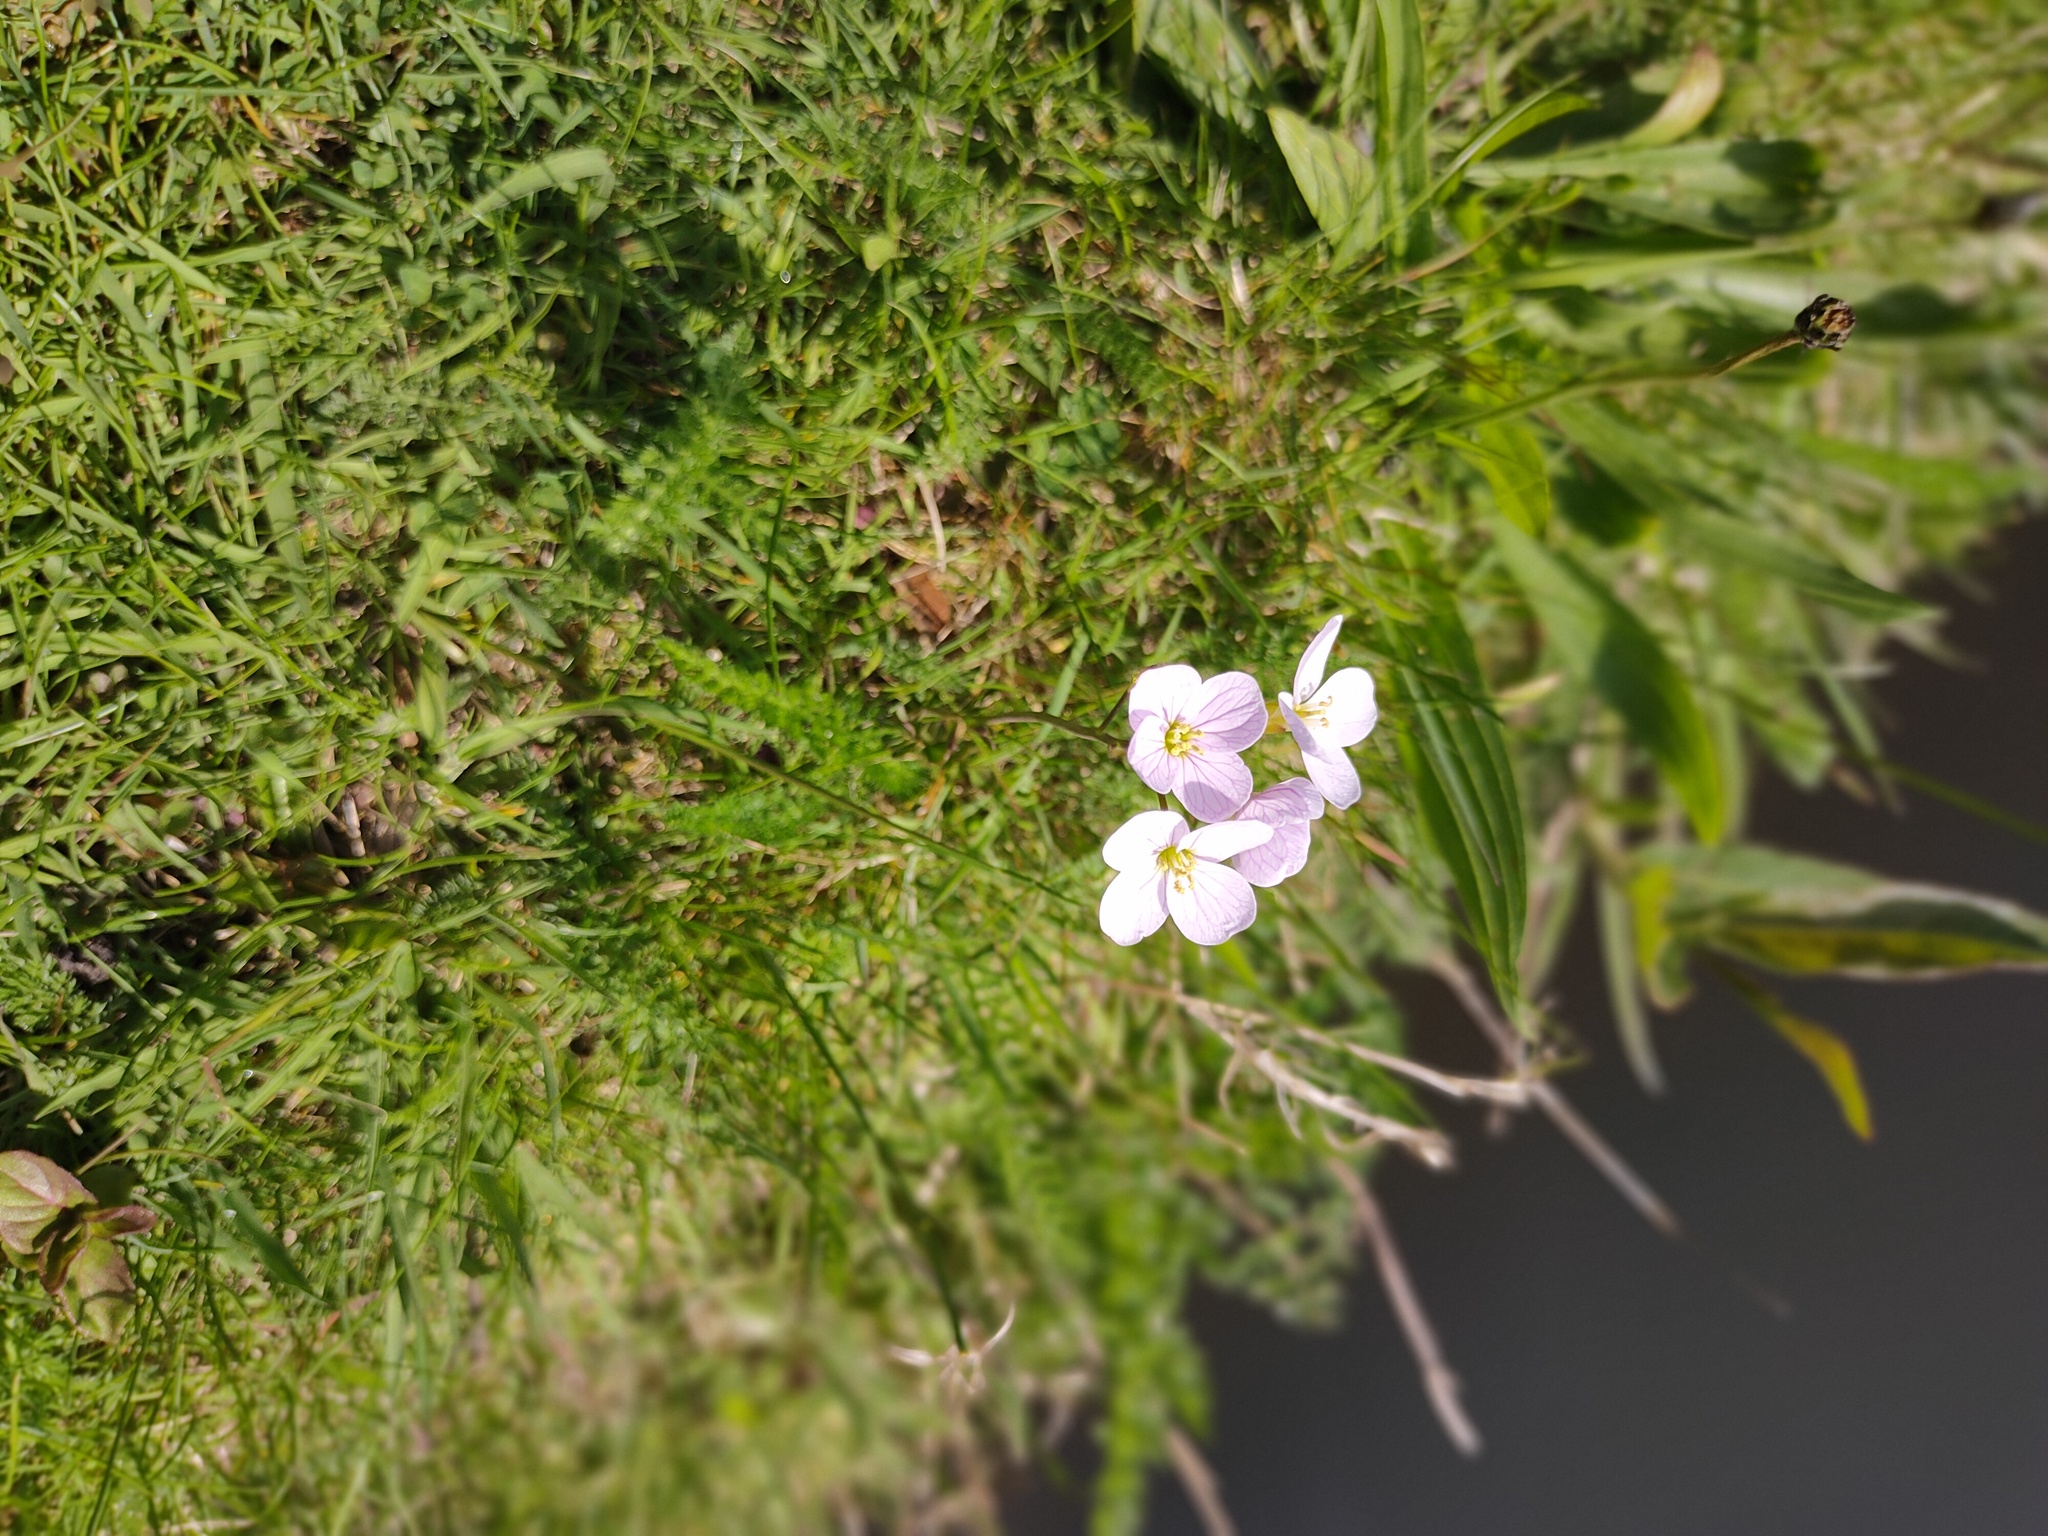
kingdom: Plantae
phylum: Tracheophyta
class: Magnoliopsida
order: Brassicales
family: Brassicaceae
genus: Cardamine
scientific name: Cardamine pratensis
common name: Cuckoo flower
